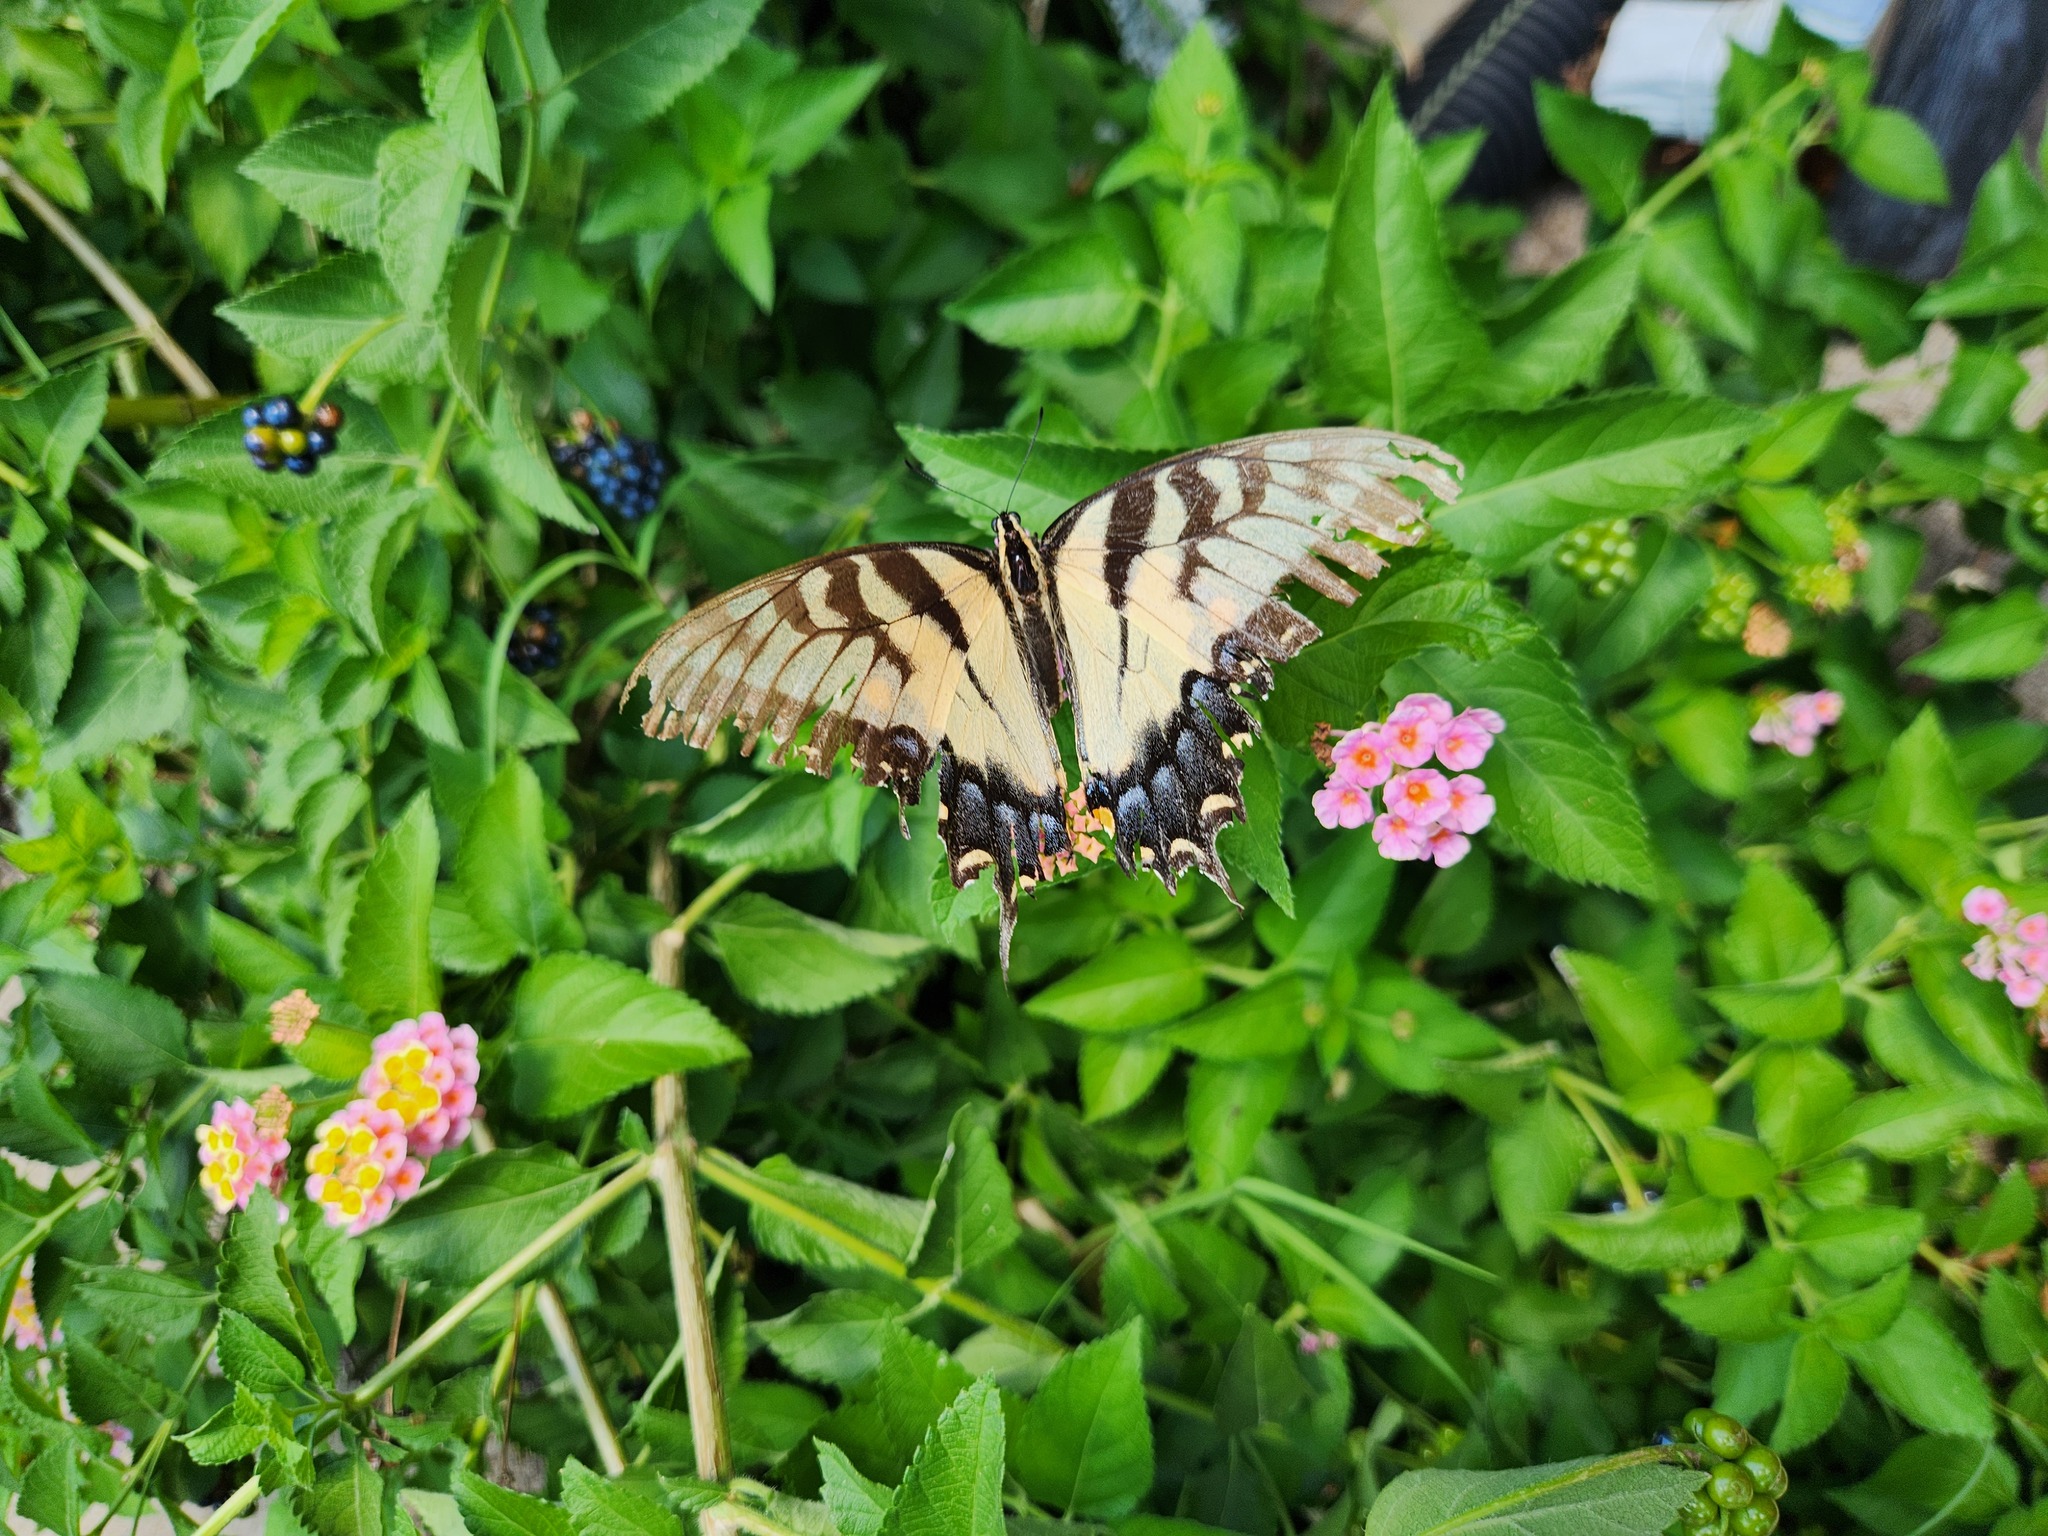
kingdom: Animalia
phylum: Arthropoda
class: Insecta
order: Lepidoptera
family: Papilionidae
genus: Papilio
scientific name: Papilio glaucus
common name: Tiger swallowtail
